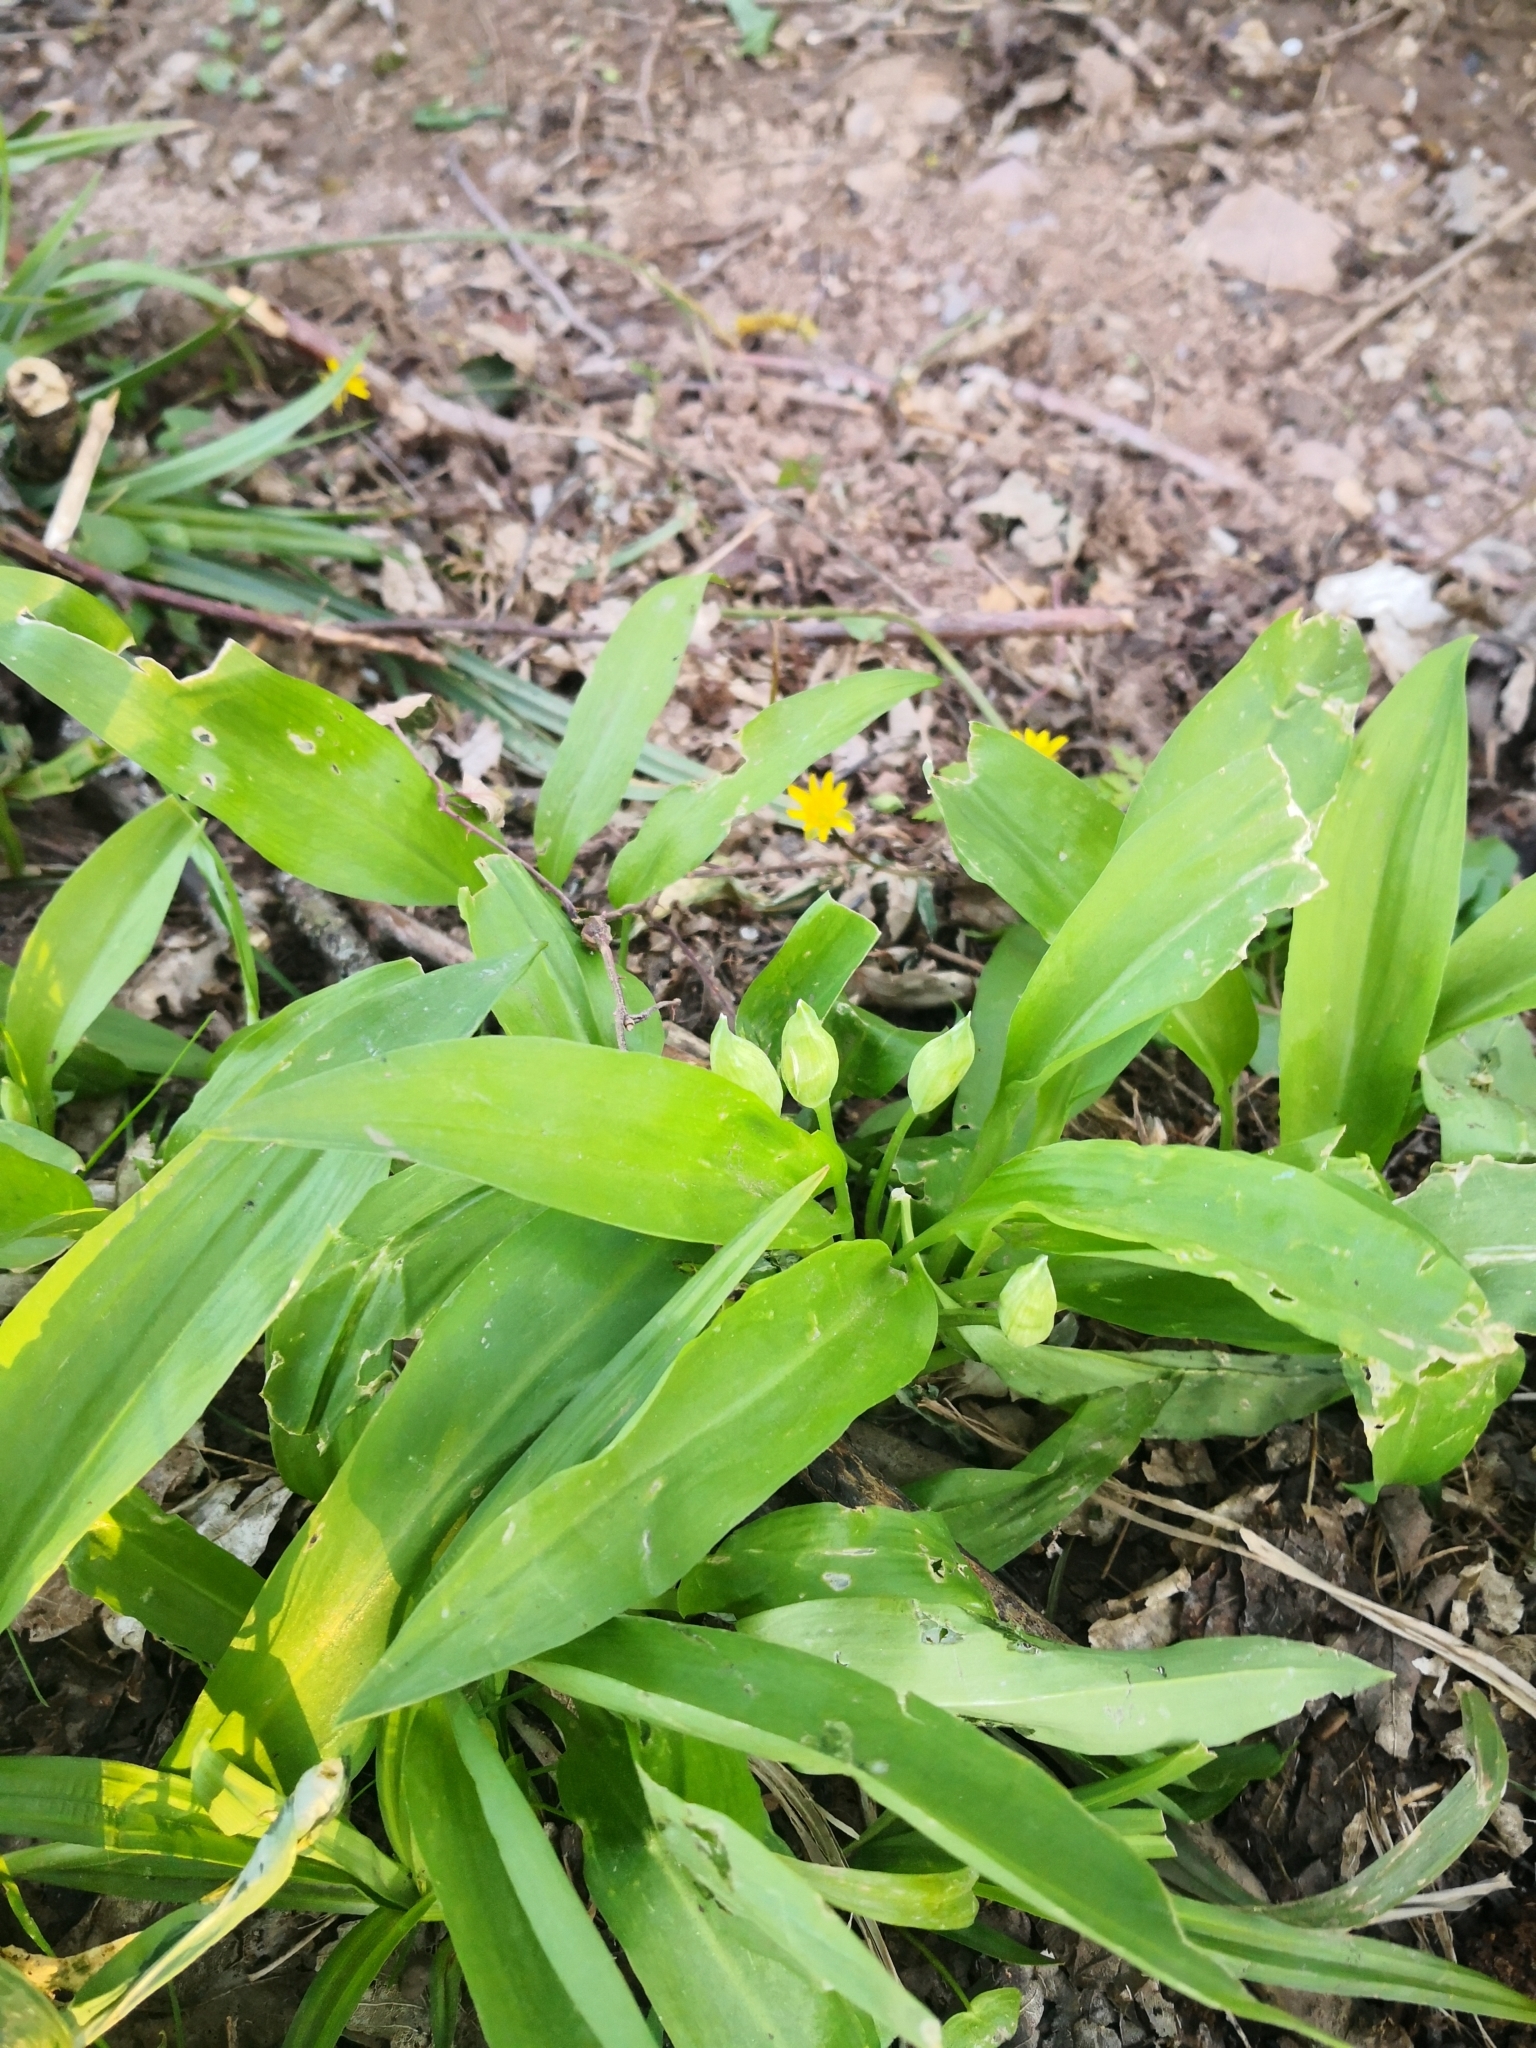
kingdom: Plantae
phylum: Tracheophyta
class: Liliopsida
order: Asparagales
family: Amaryllidaceae
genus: Allium
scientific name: Allium ursinum
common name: Ramsons
